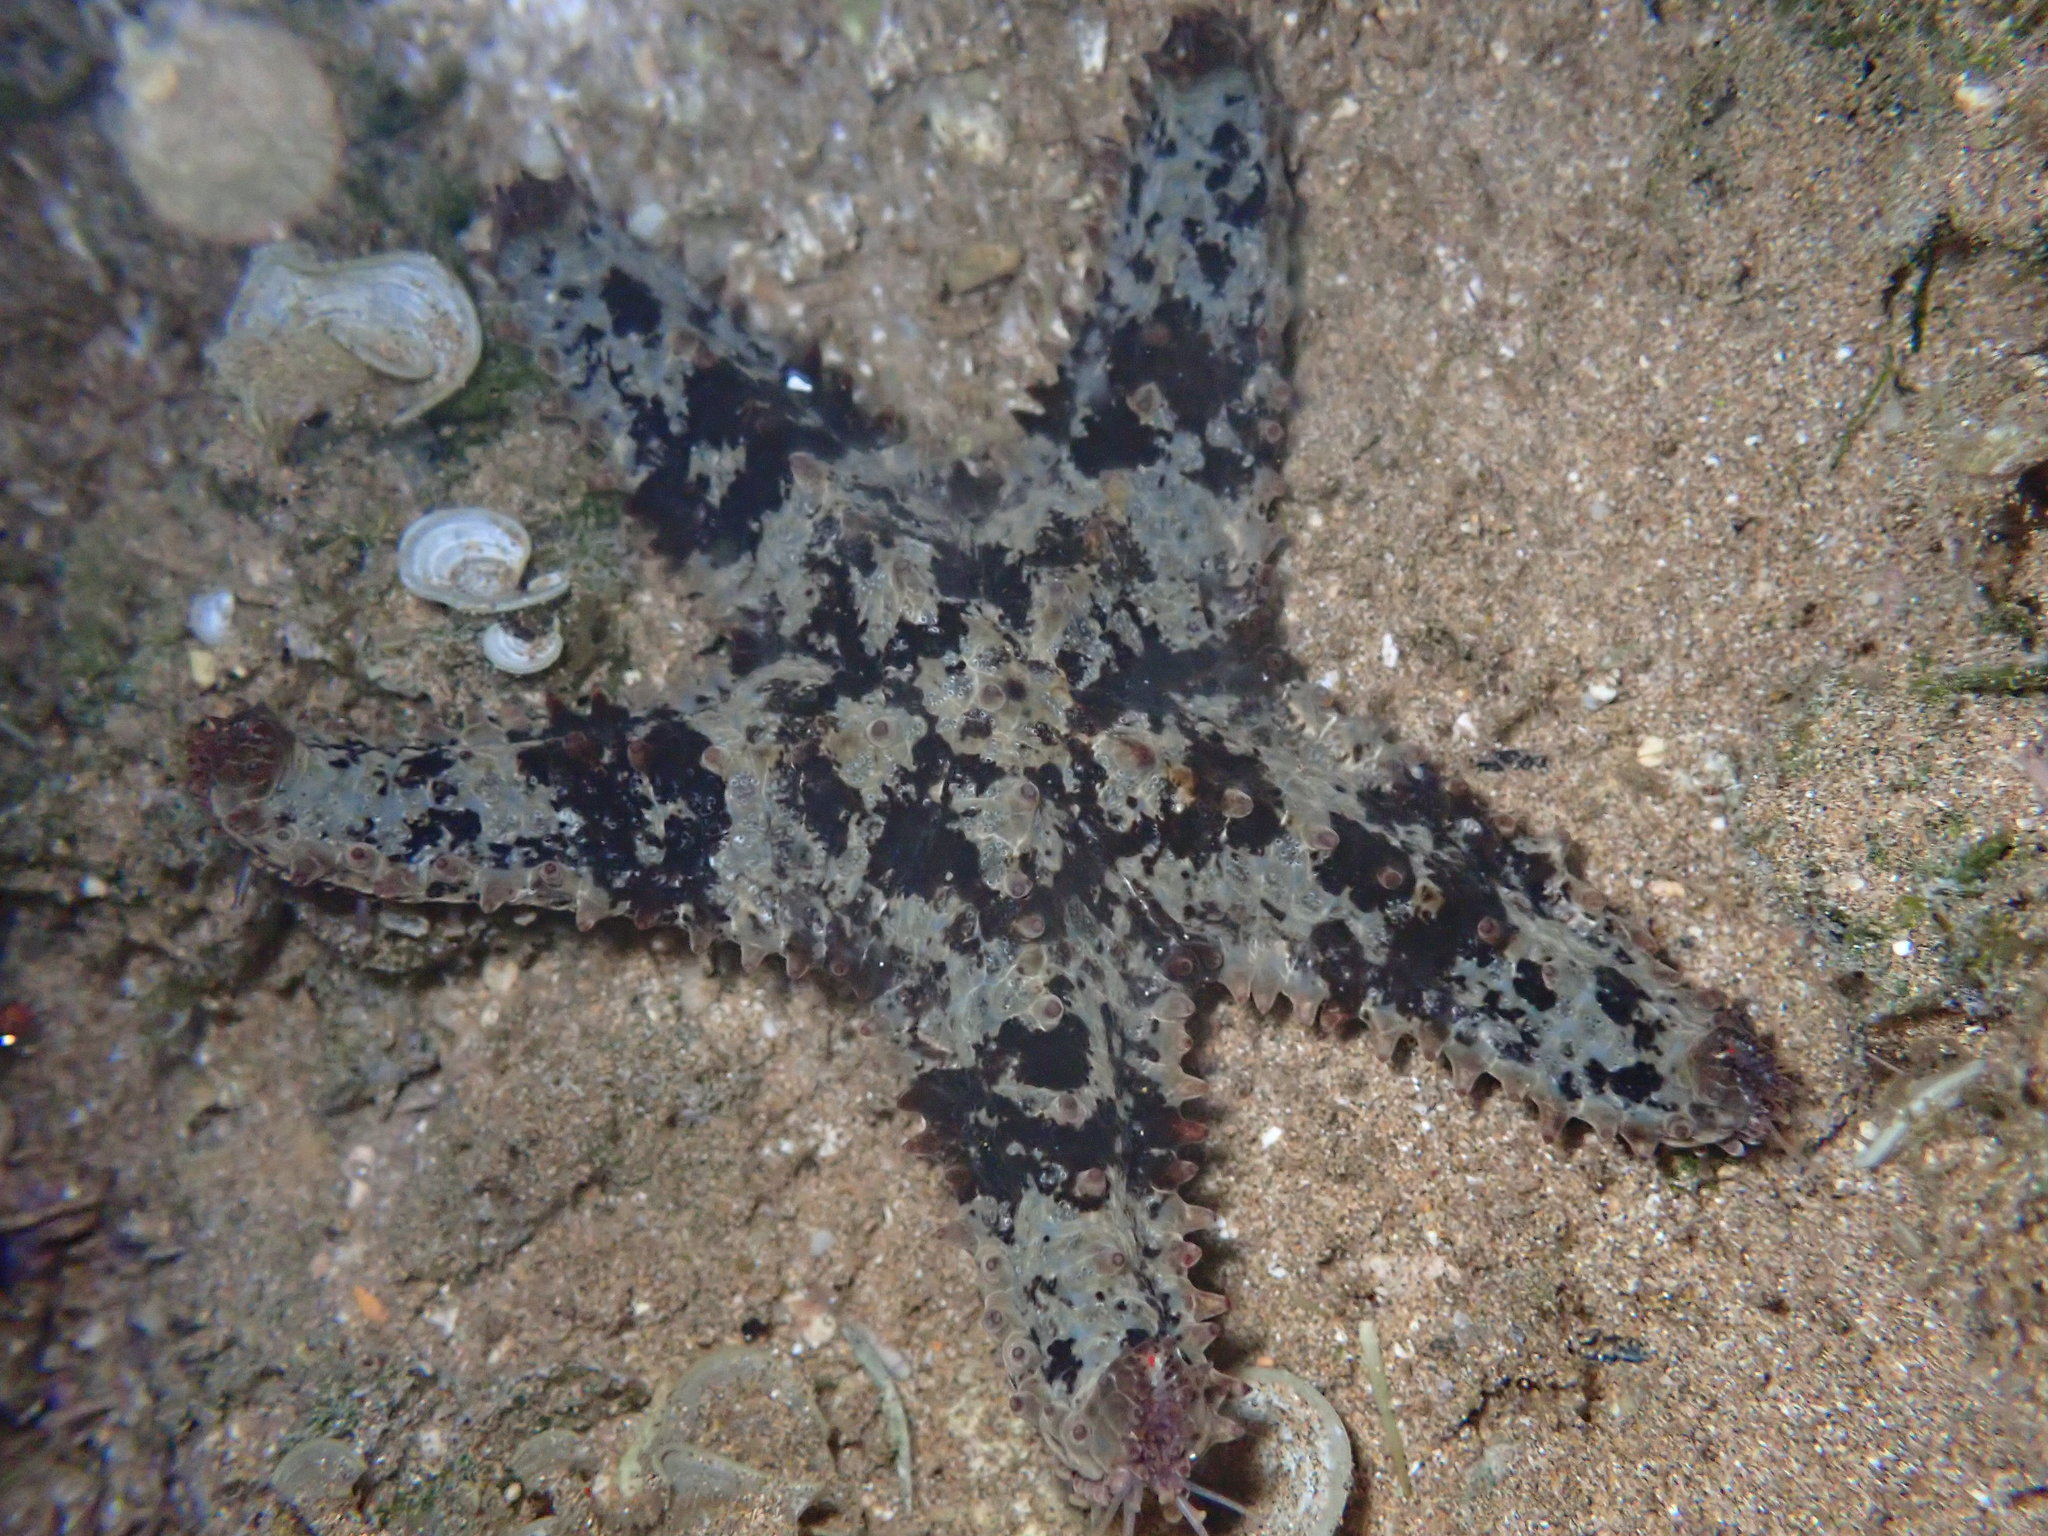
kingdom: Animalia
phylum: Echinodermata
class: Asteroidea
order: Valvatida
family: Asteropseidae
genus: Asteropsis
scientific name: Asteropsis carinifera
